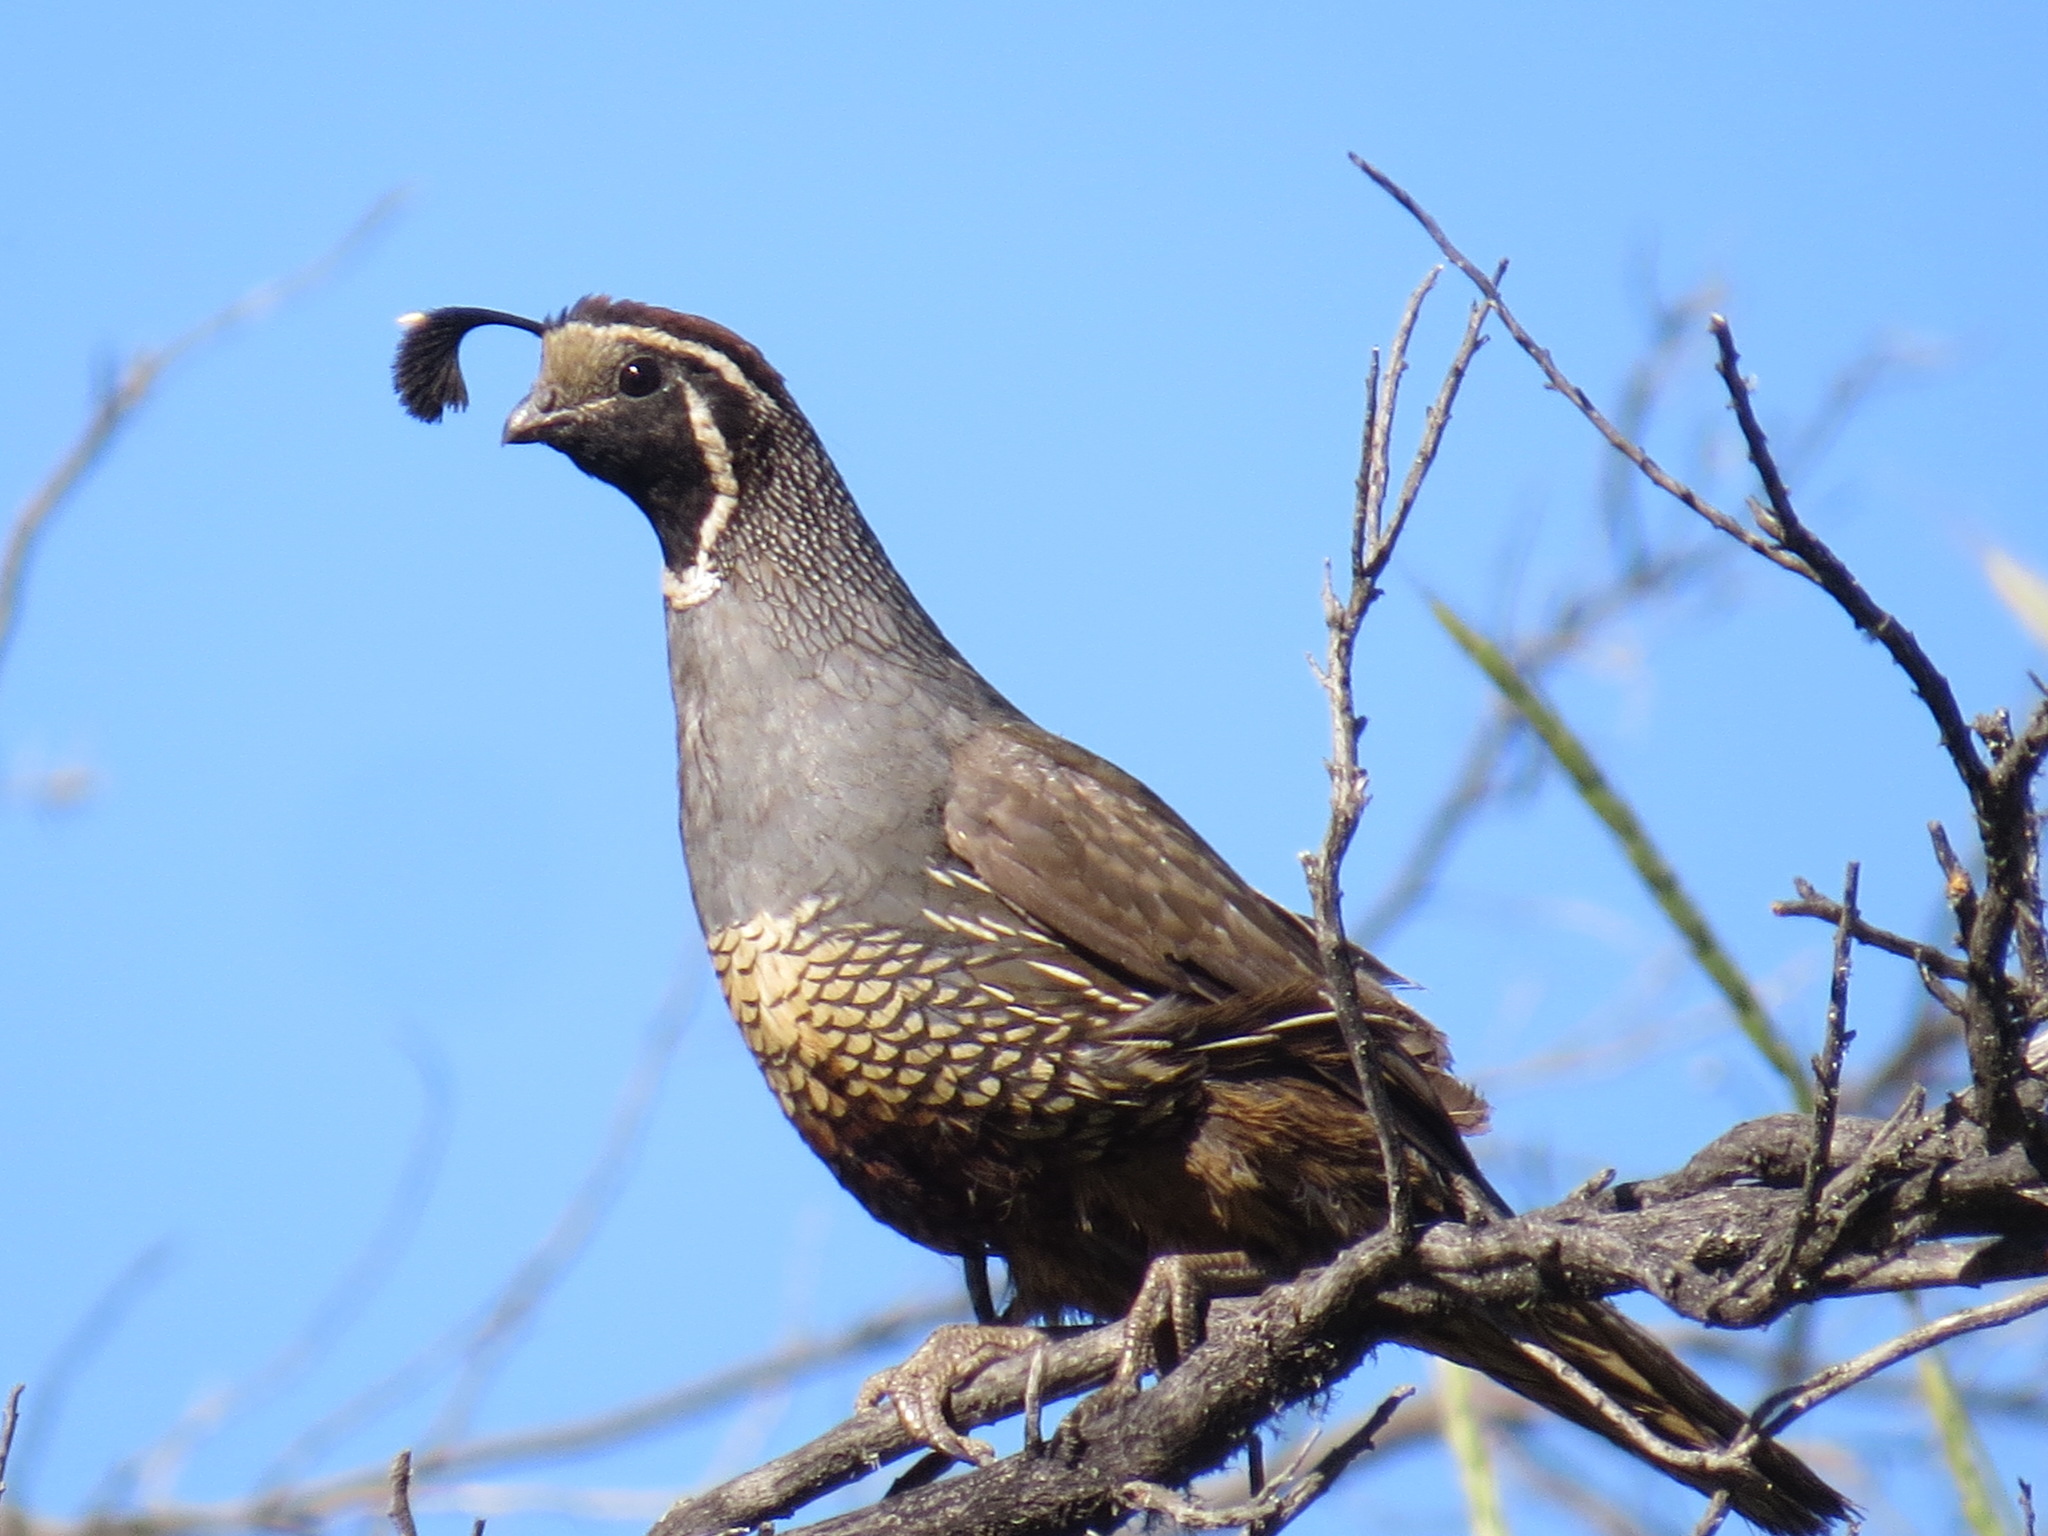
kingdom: Animalia
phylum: Chordata
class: Aves
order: Galliformes
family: Odontophoridae
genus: Callipepla
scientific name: Callipepla californica
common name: California quail
